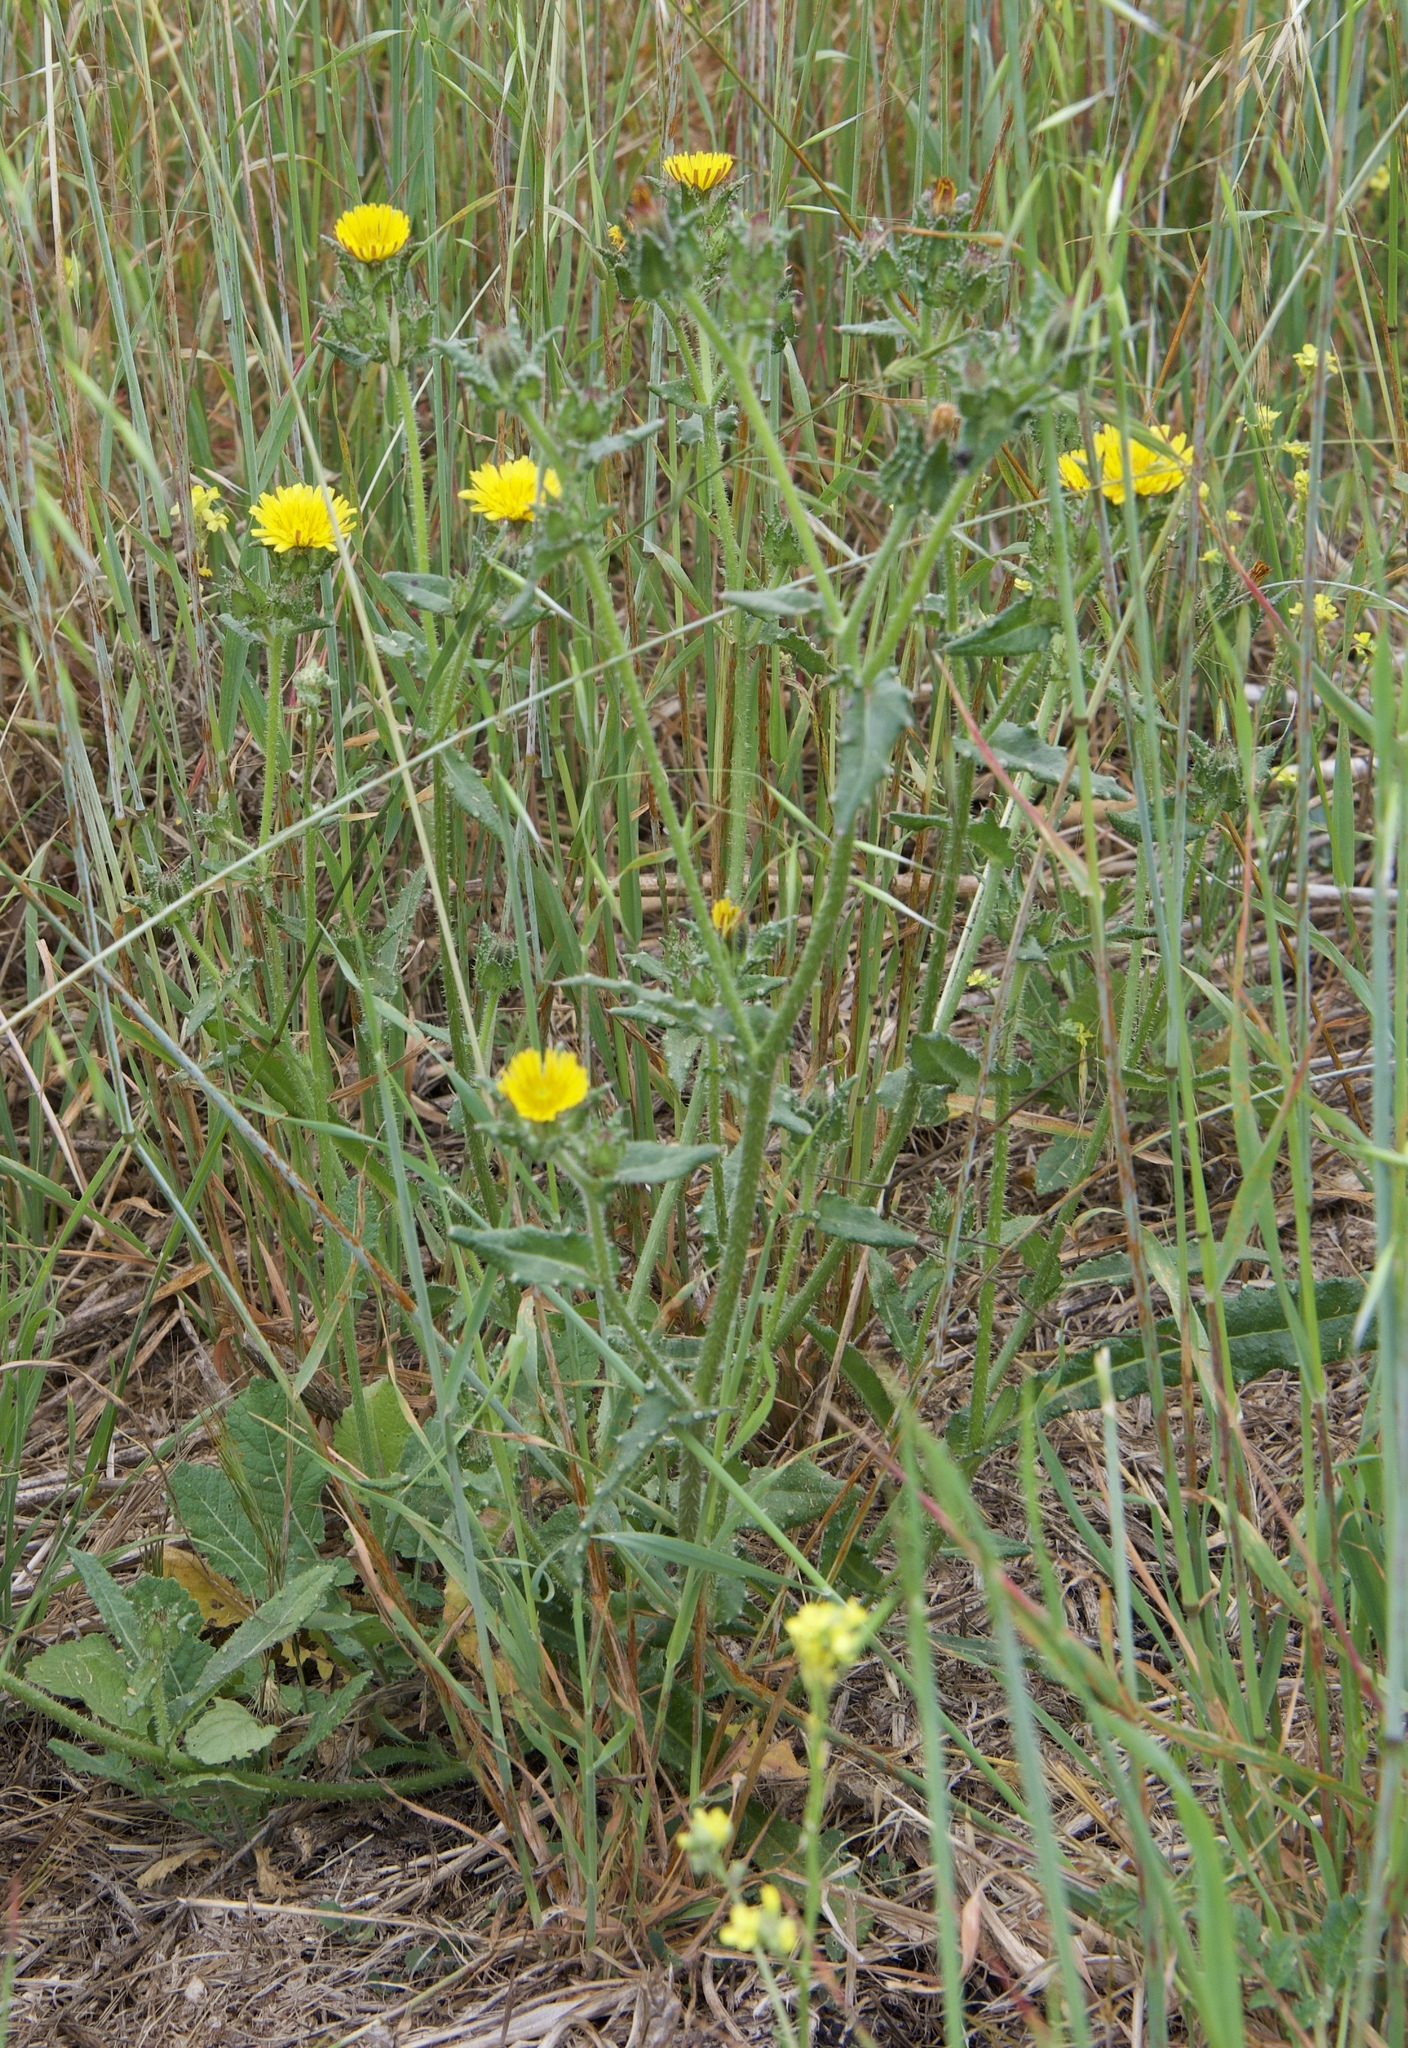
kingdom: Plantae
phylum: Tracheophyta
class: Magnoliopsida
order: Asterales
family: Asteraceae
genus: Helminthotheca
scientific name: Helminthotheca echioides
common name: Ox-tongue
